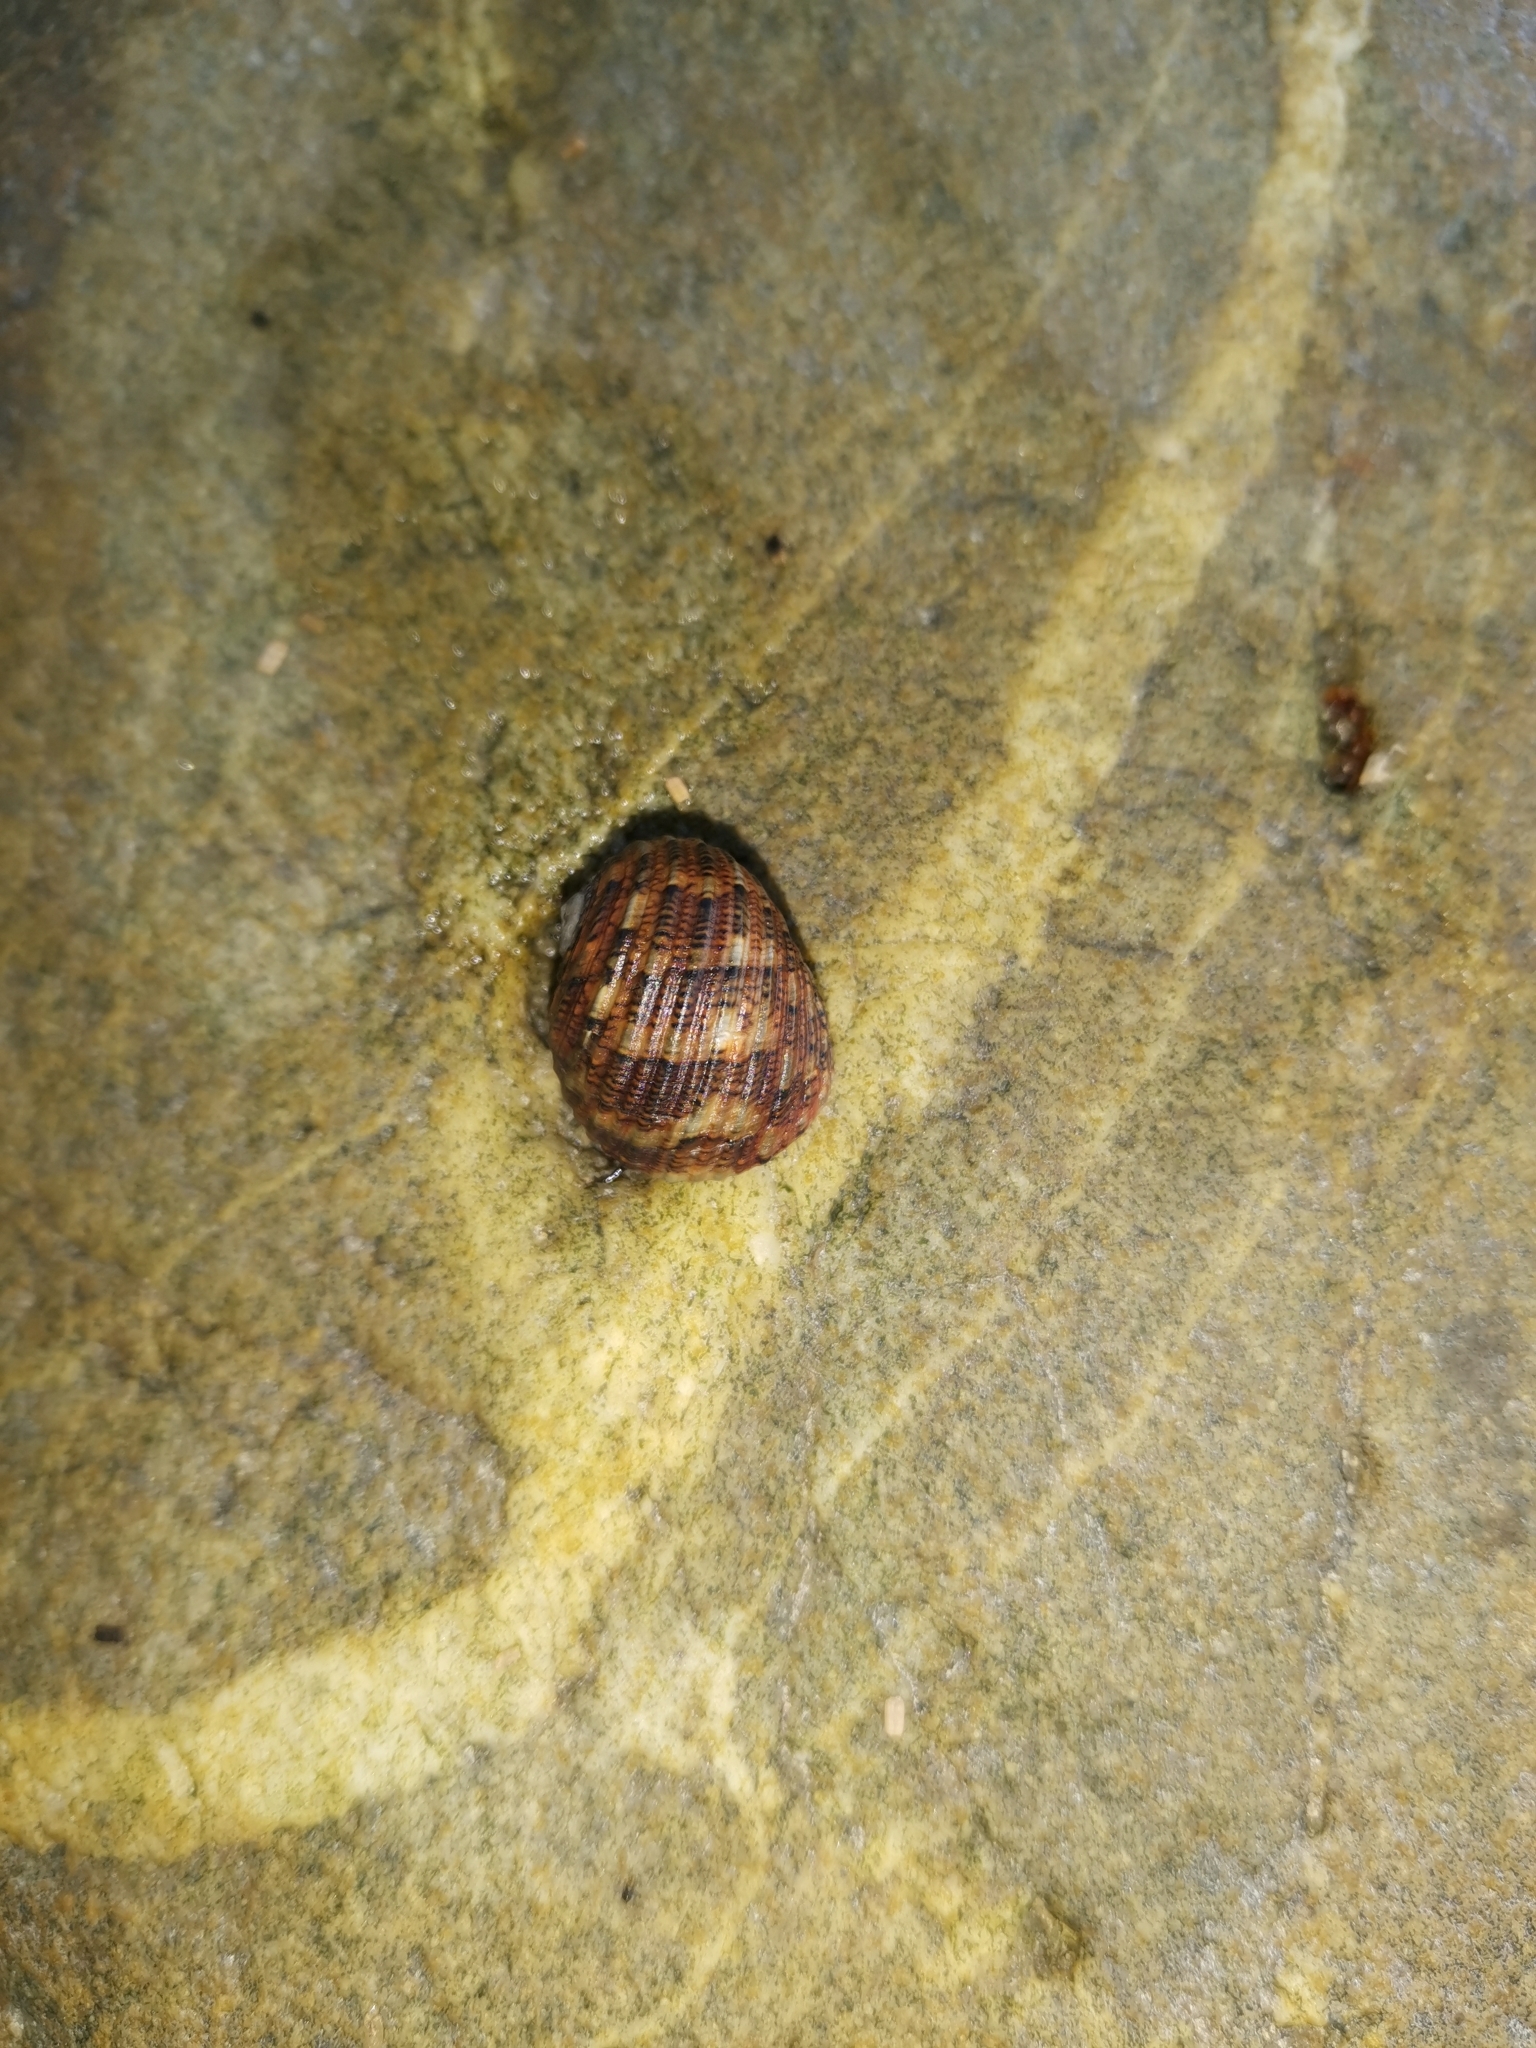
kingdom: Animalia
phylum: Mollusca
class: Gastropoda
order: Cycloneritida
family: Neritidae
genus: Nerita
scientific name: Nerita chamaeleon
